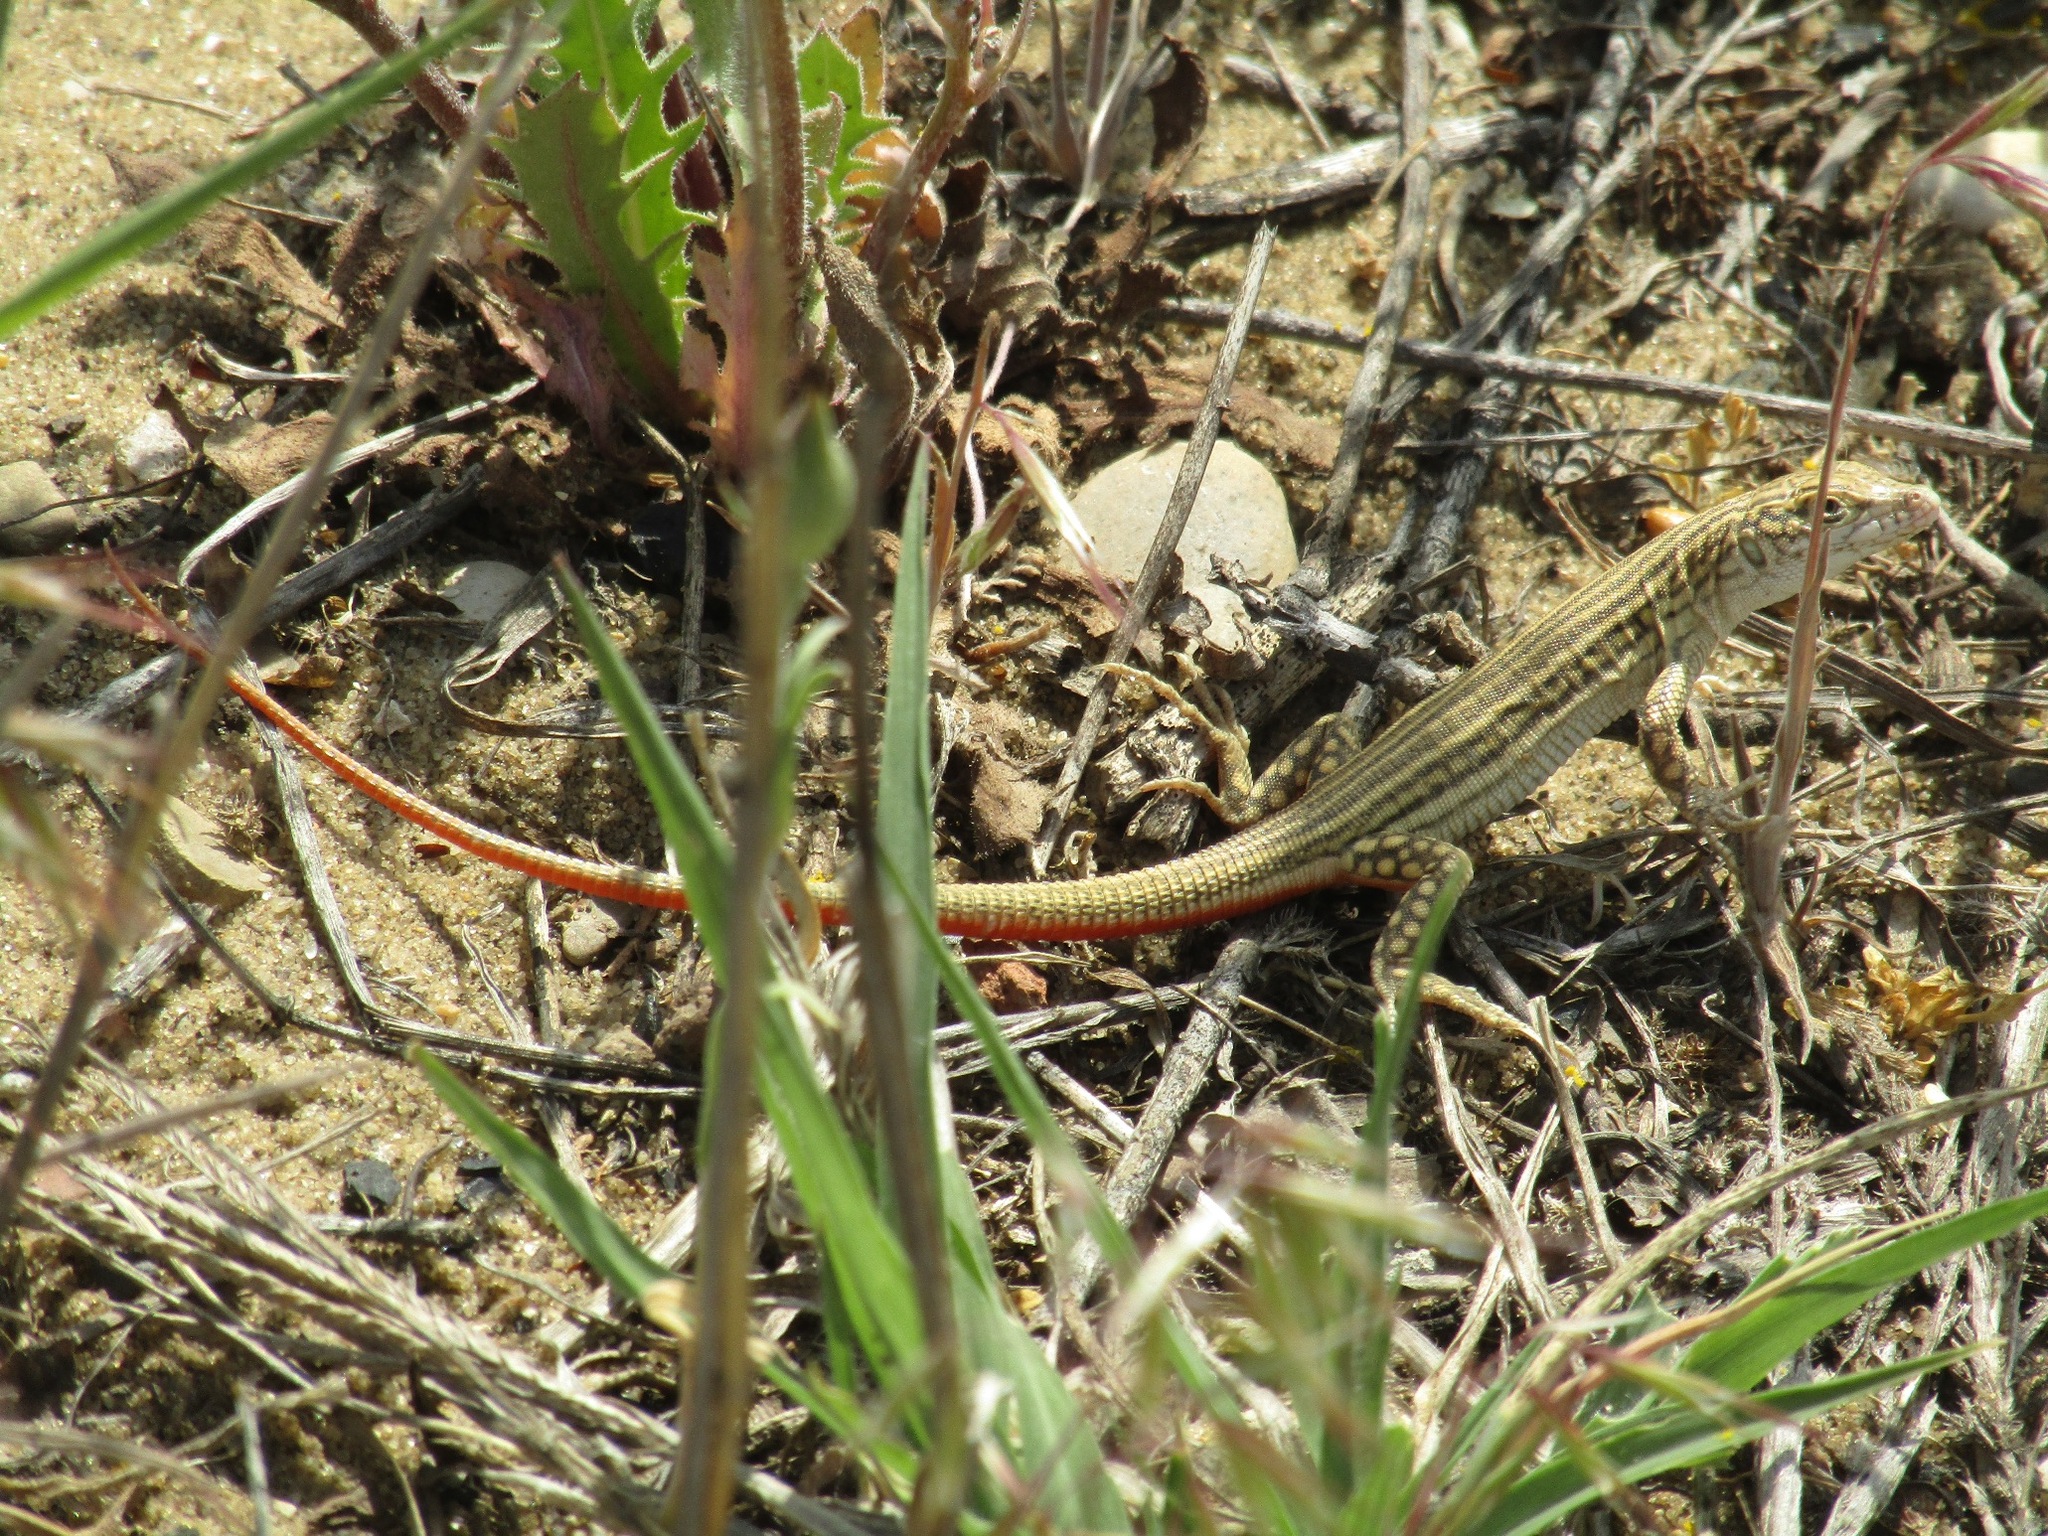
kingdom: Animalia
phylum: Chordata
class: Squamata
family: Lacertidae
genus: Eremias
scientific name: Eremias velox
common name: Central asian racerunner
